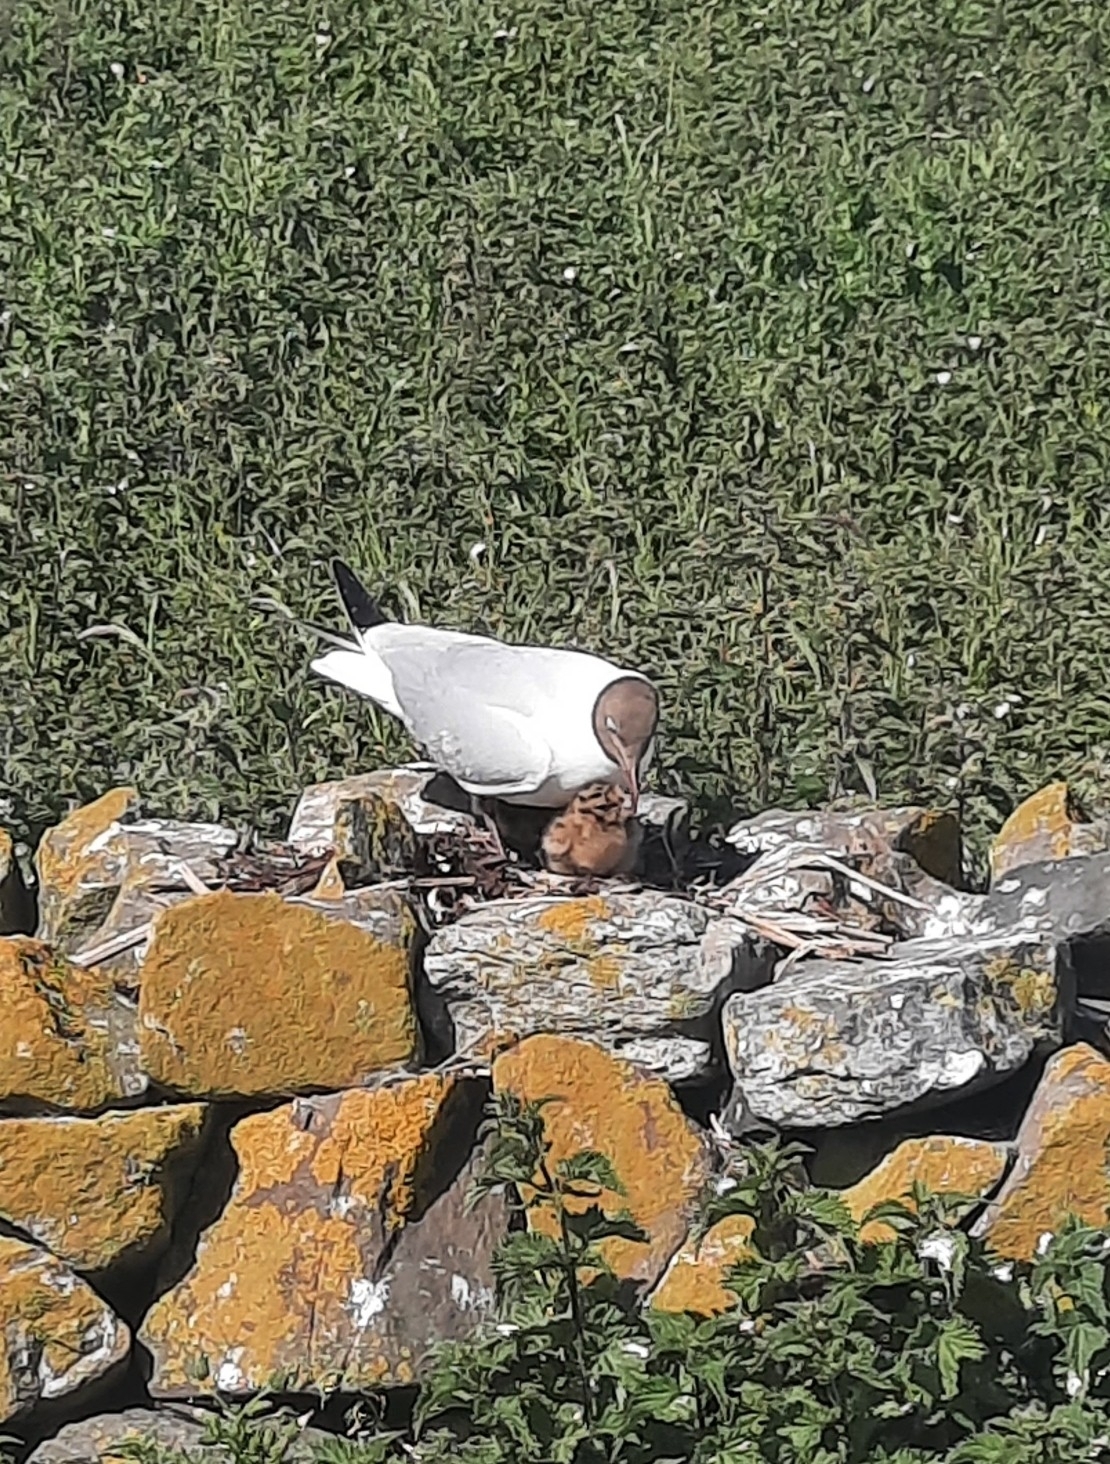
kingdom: Animalia
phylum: Chordata
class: Aves
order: Charadriiformes
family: Laridae
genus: Chroicocephalus
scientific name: Chroicocephalus ridibundus
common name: Black-headed gull
